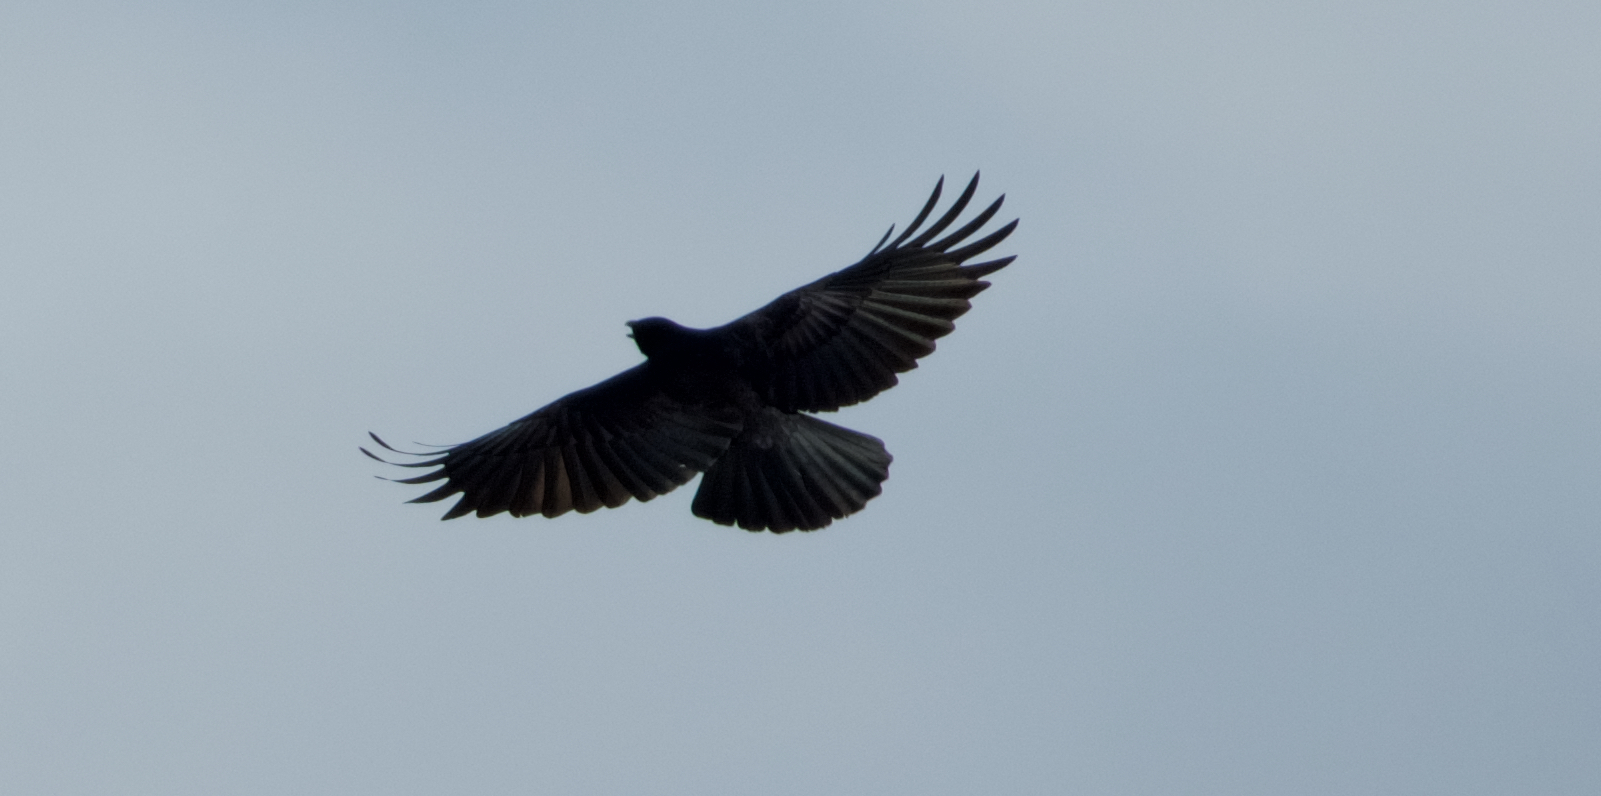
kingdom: Animalia
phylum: Chordata
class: Aves
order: Passeriformes
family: Corvidae
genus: Corvus
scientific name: Corvus brachyrhynchos
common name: American crow
